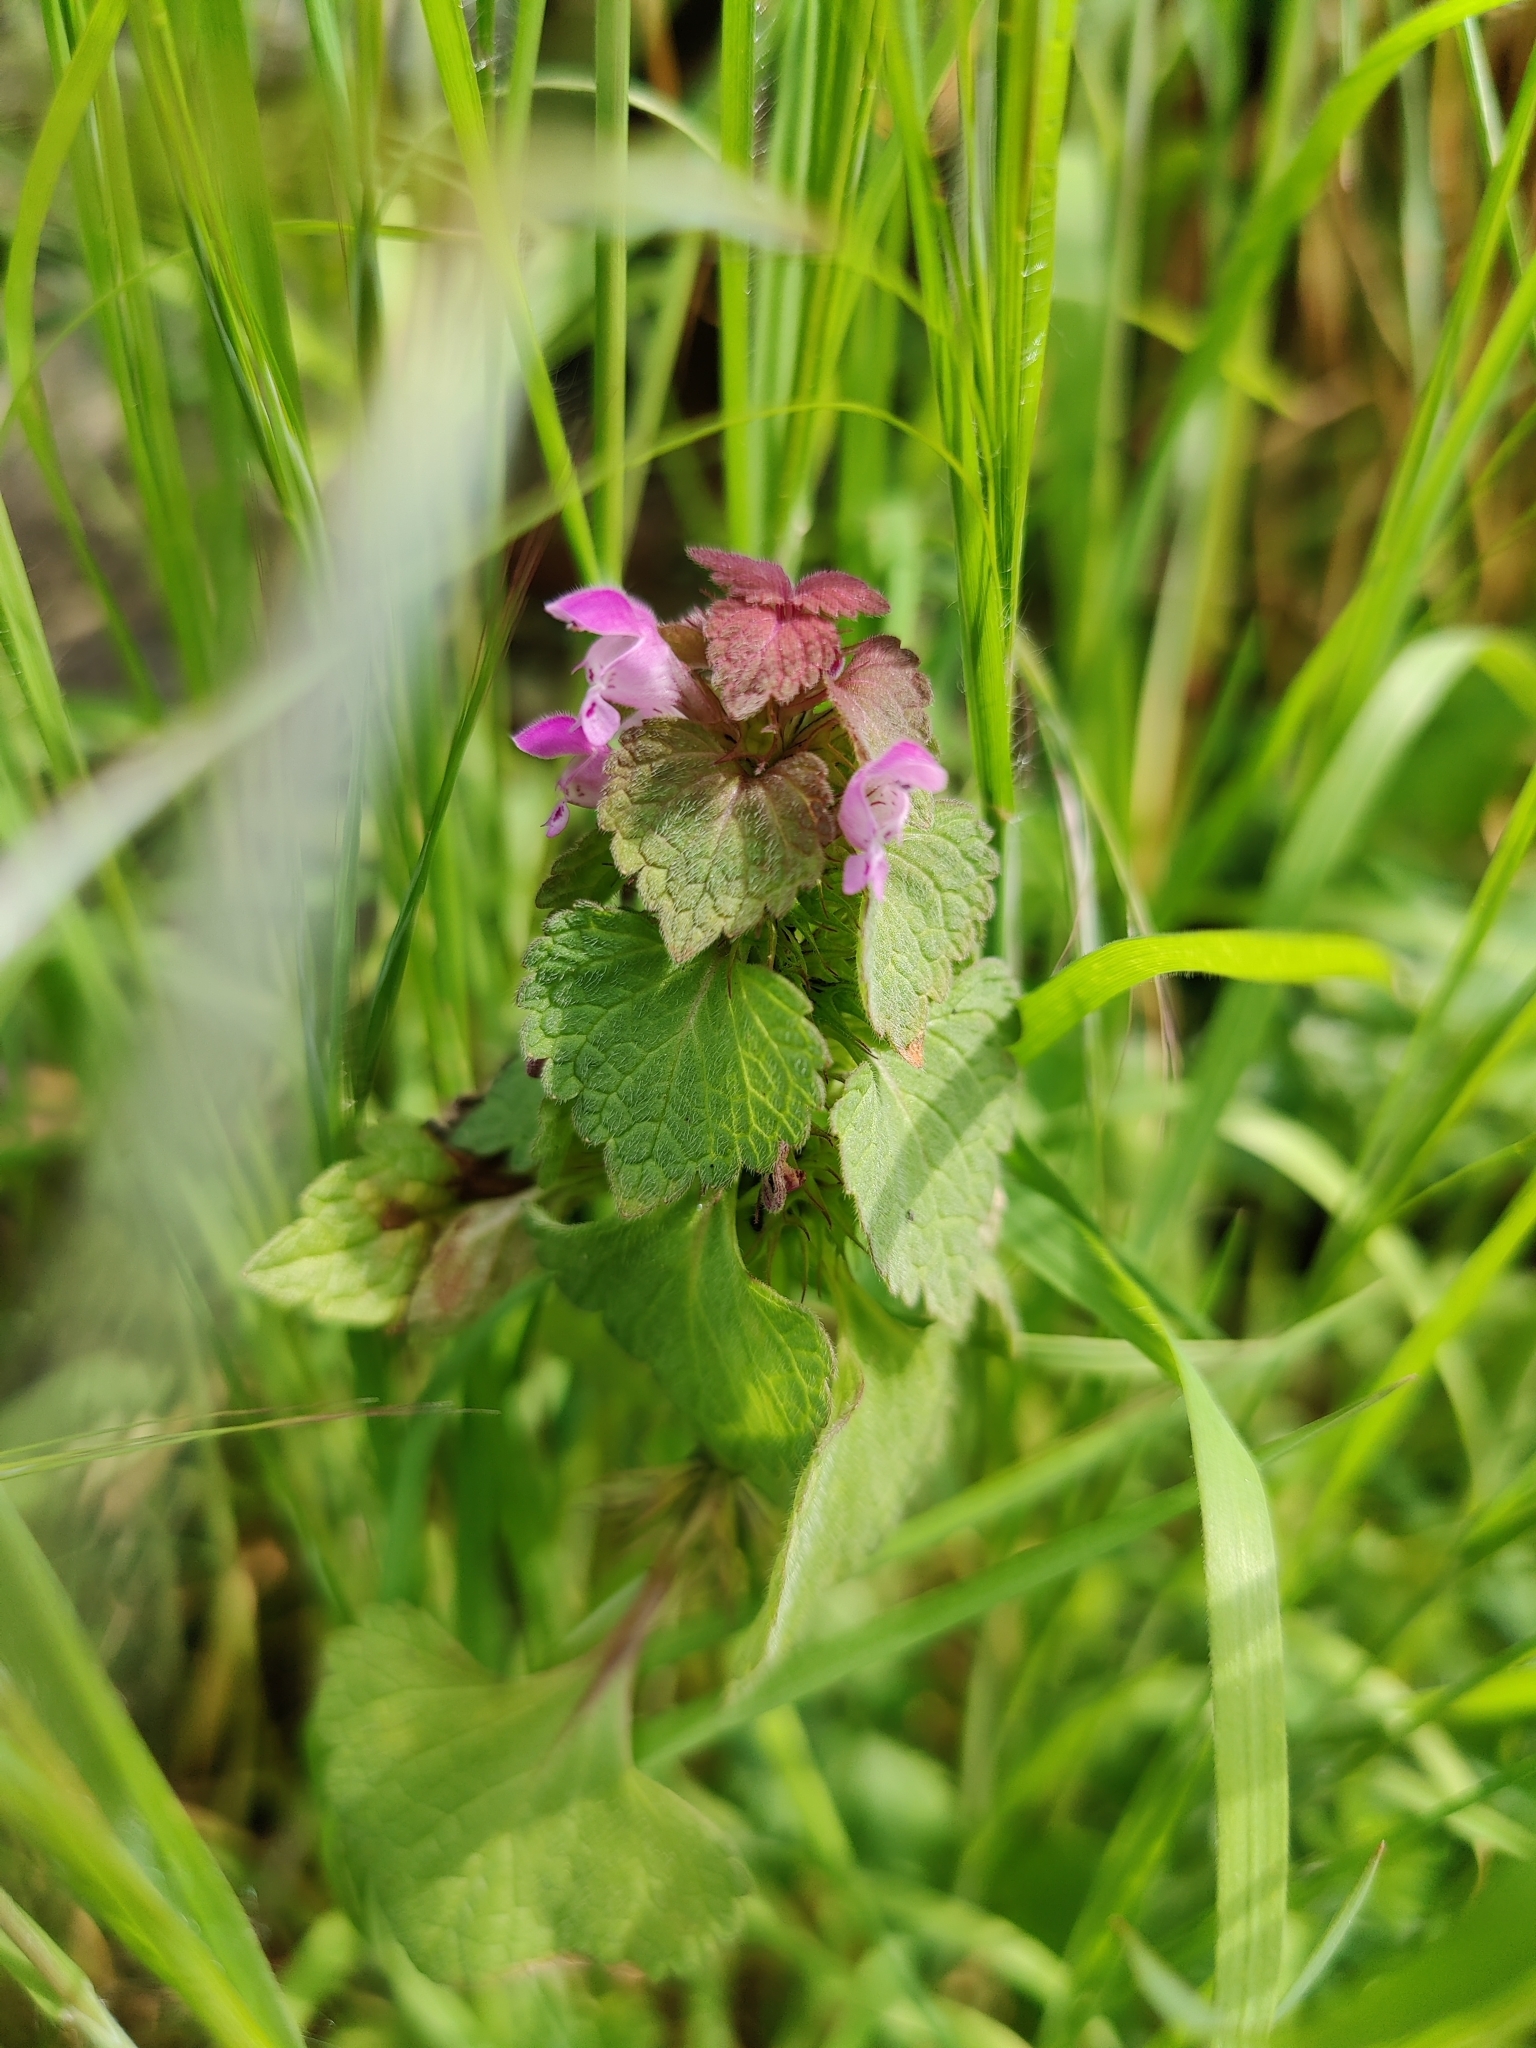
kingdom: Plantae
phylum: Tracheophyta
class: Magnoliopsida
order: Lamiales
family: Lamiaceae
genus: Lamium
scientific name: Lamium purpureum
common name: Red dead-nettle
